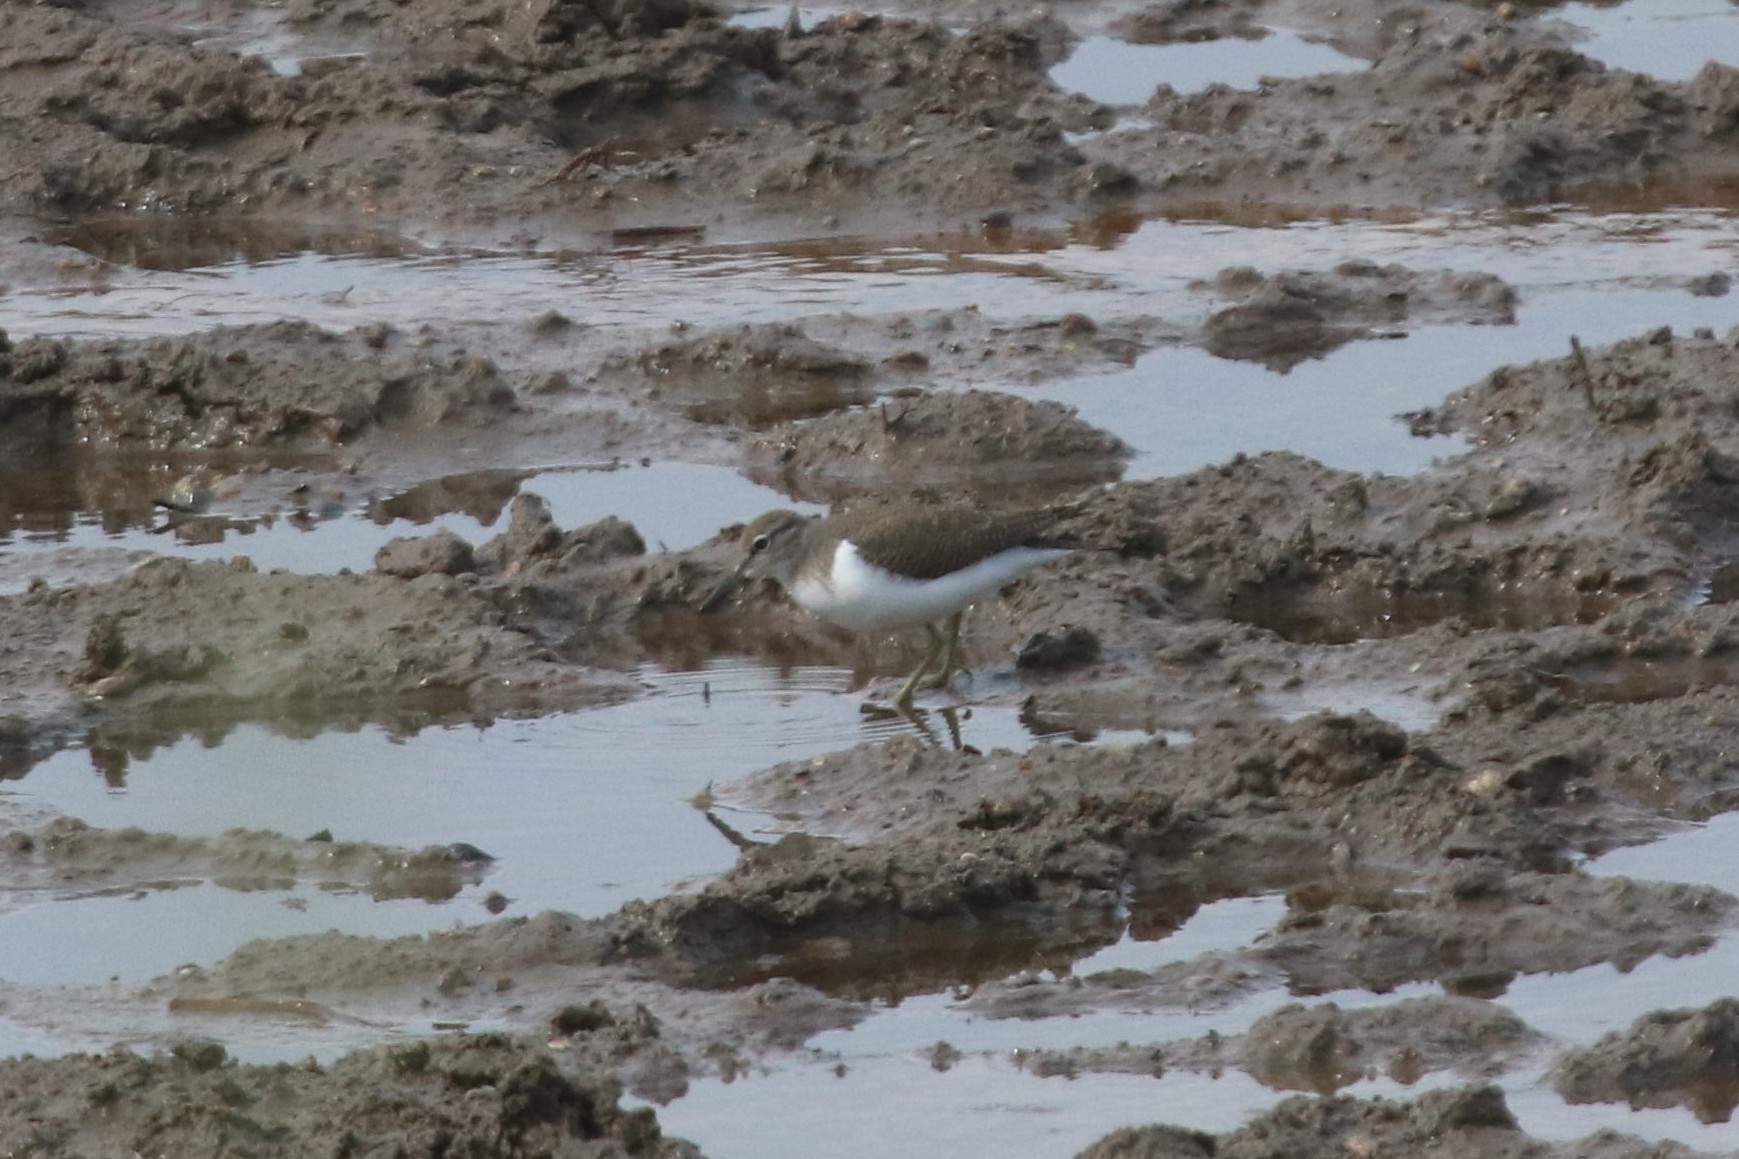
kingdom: Animalia
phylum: Chordata
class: Aves
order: Charadriiformes
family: Scolopacidae
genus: Actitis
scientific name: Actitis hypoleucos
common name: Common sandpiper
